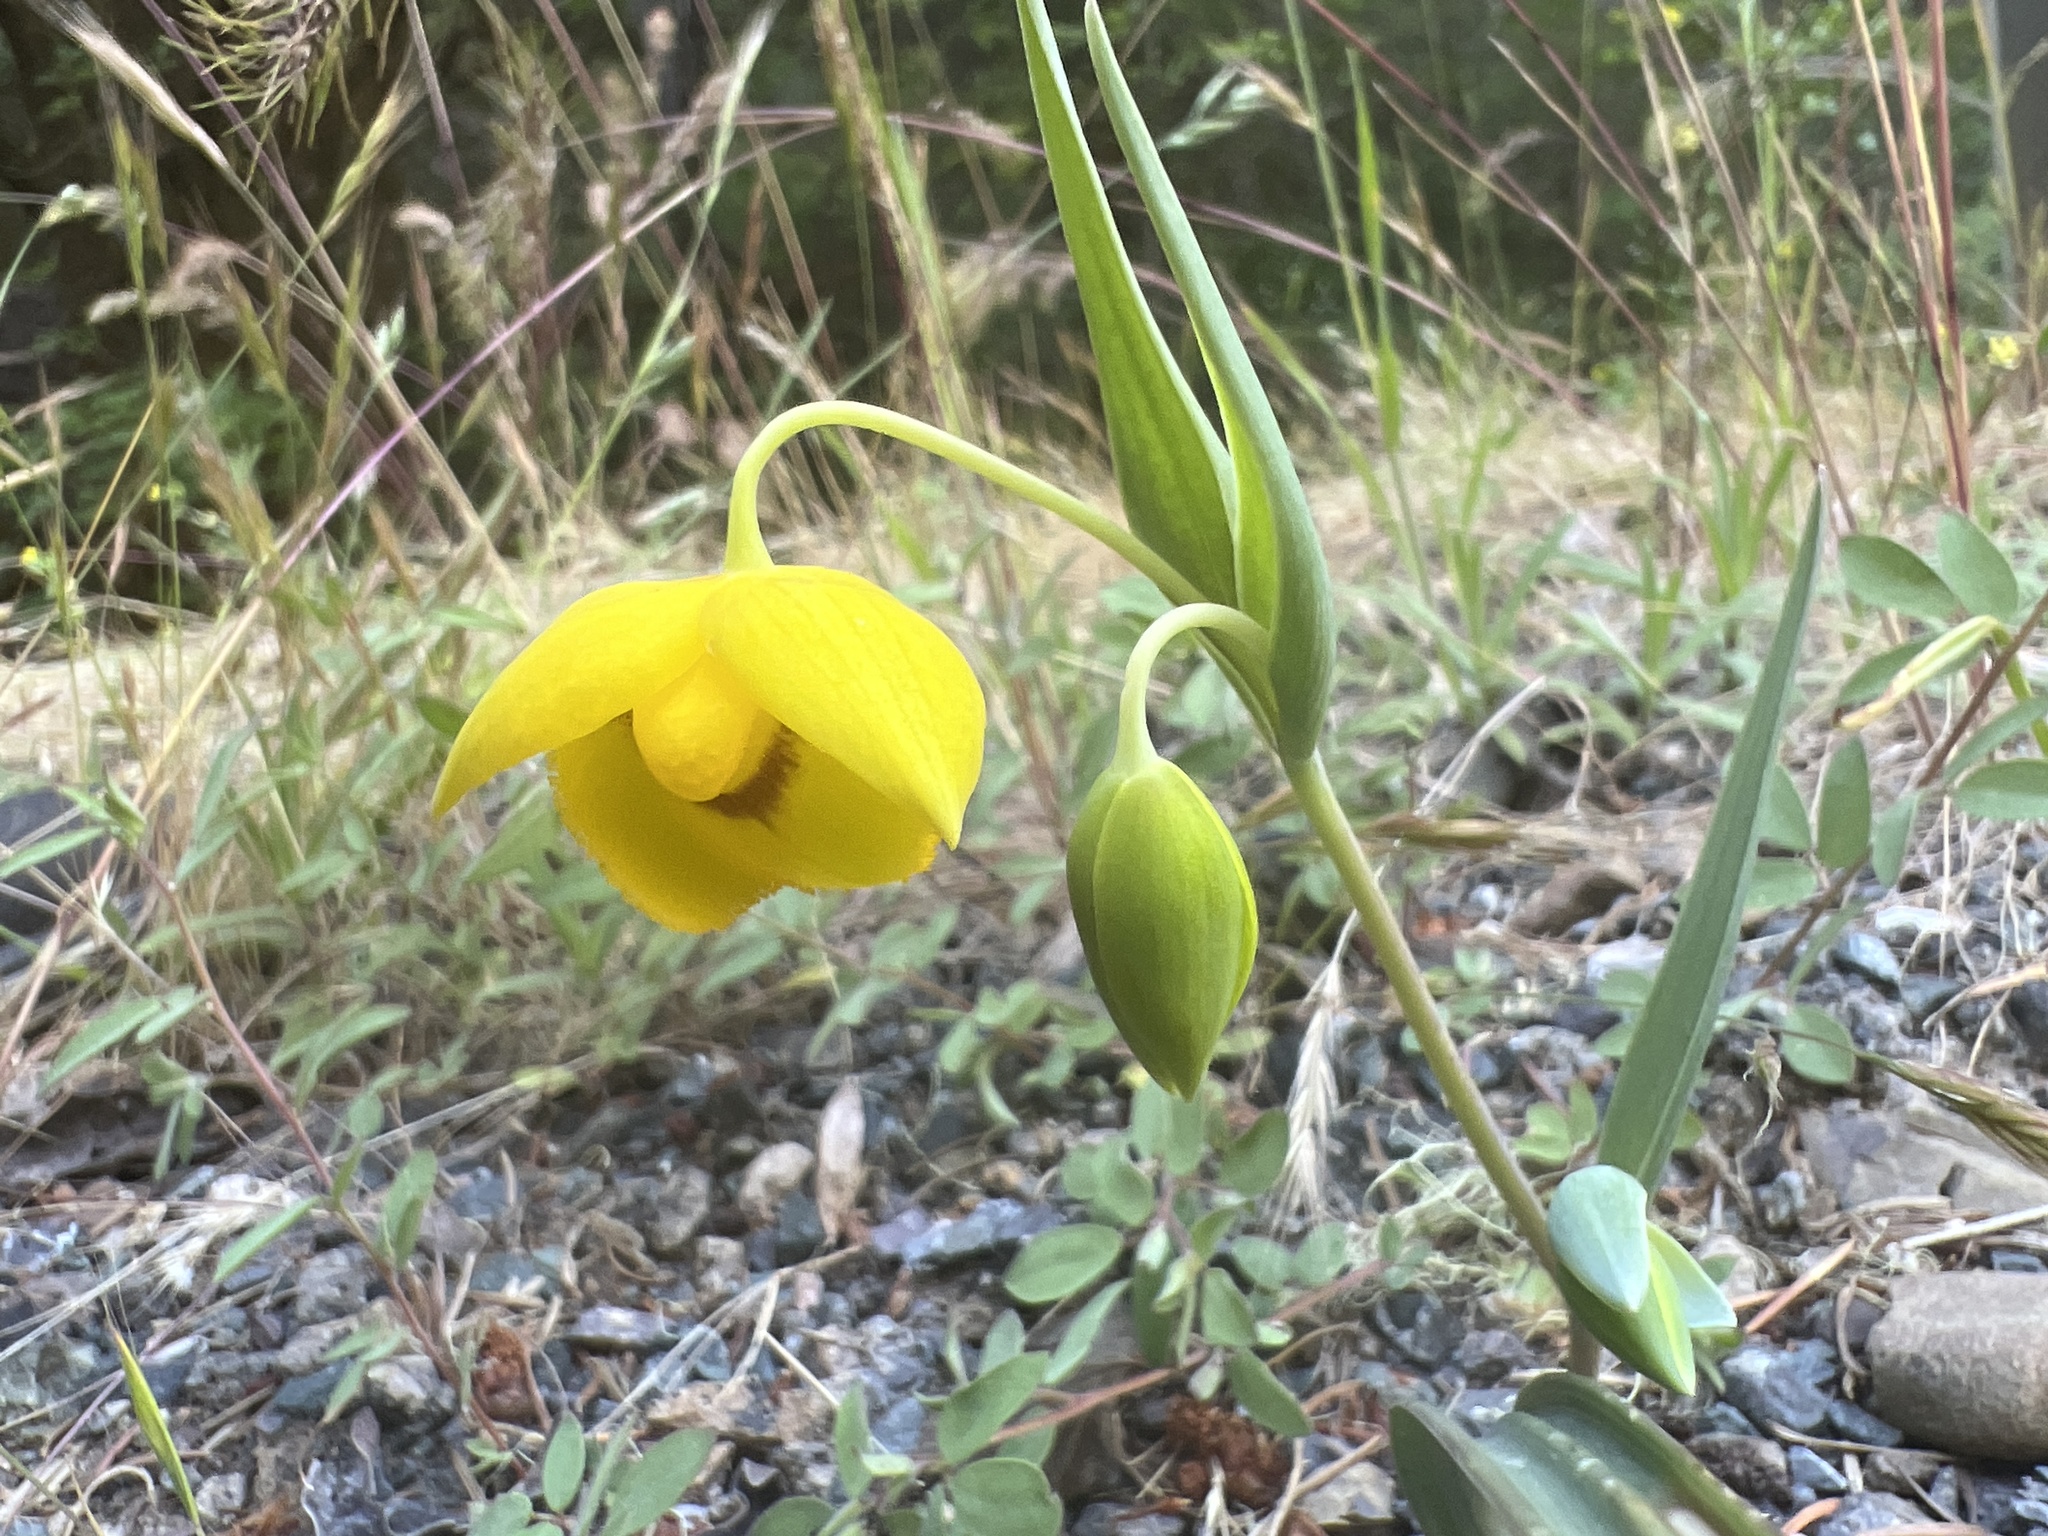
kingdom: Plantae
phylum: Tracheophyta
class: Liliopsida
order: Liliales
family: Liliaceae
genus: Calochortus
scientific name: Calochortus amabilis
